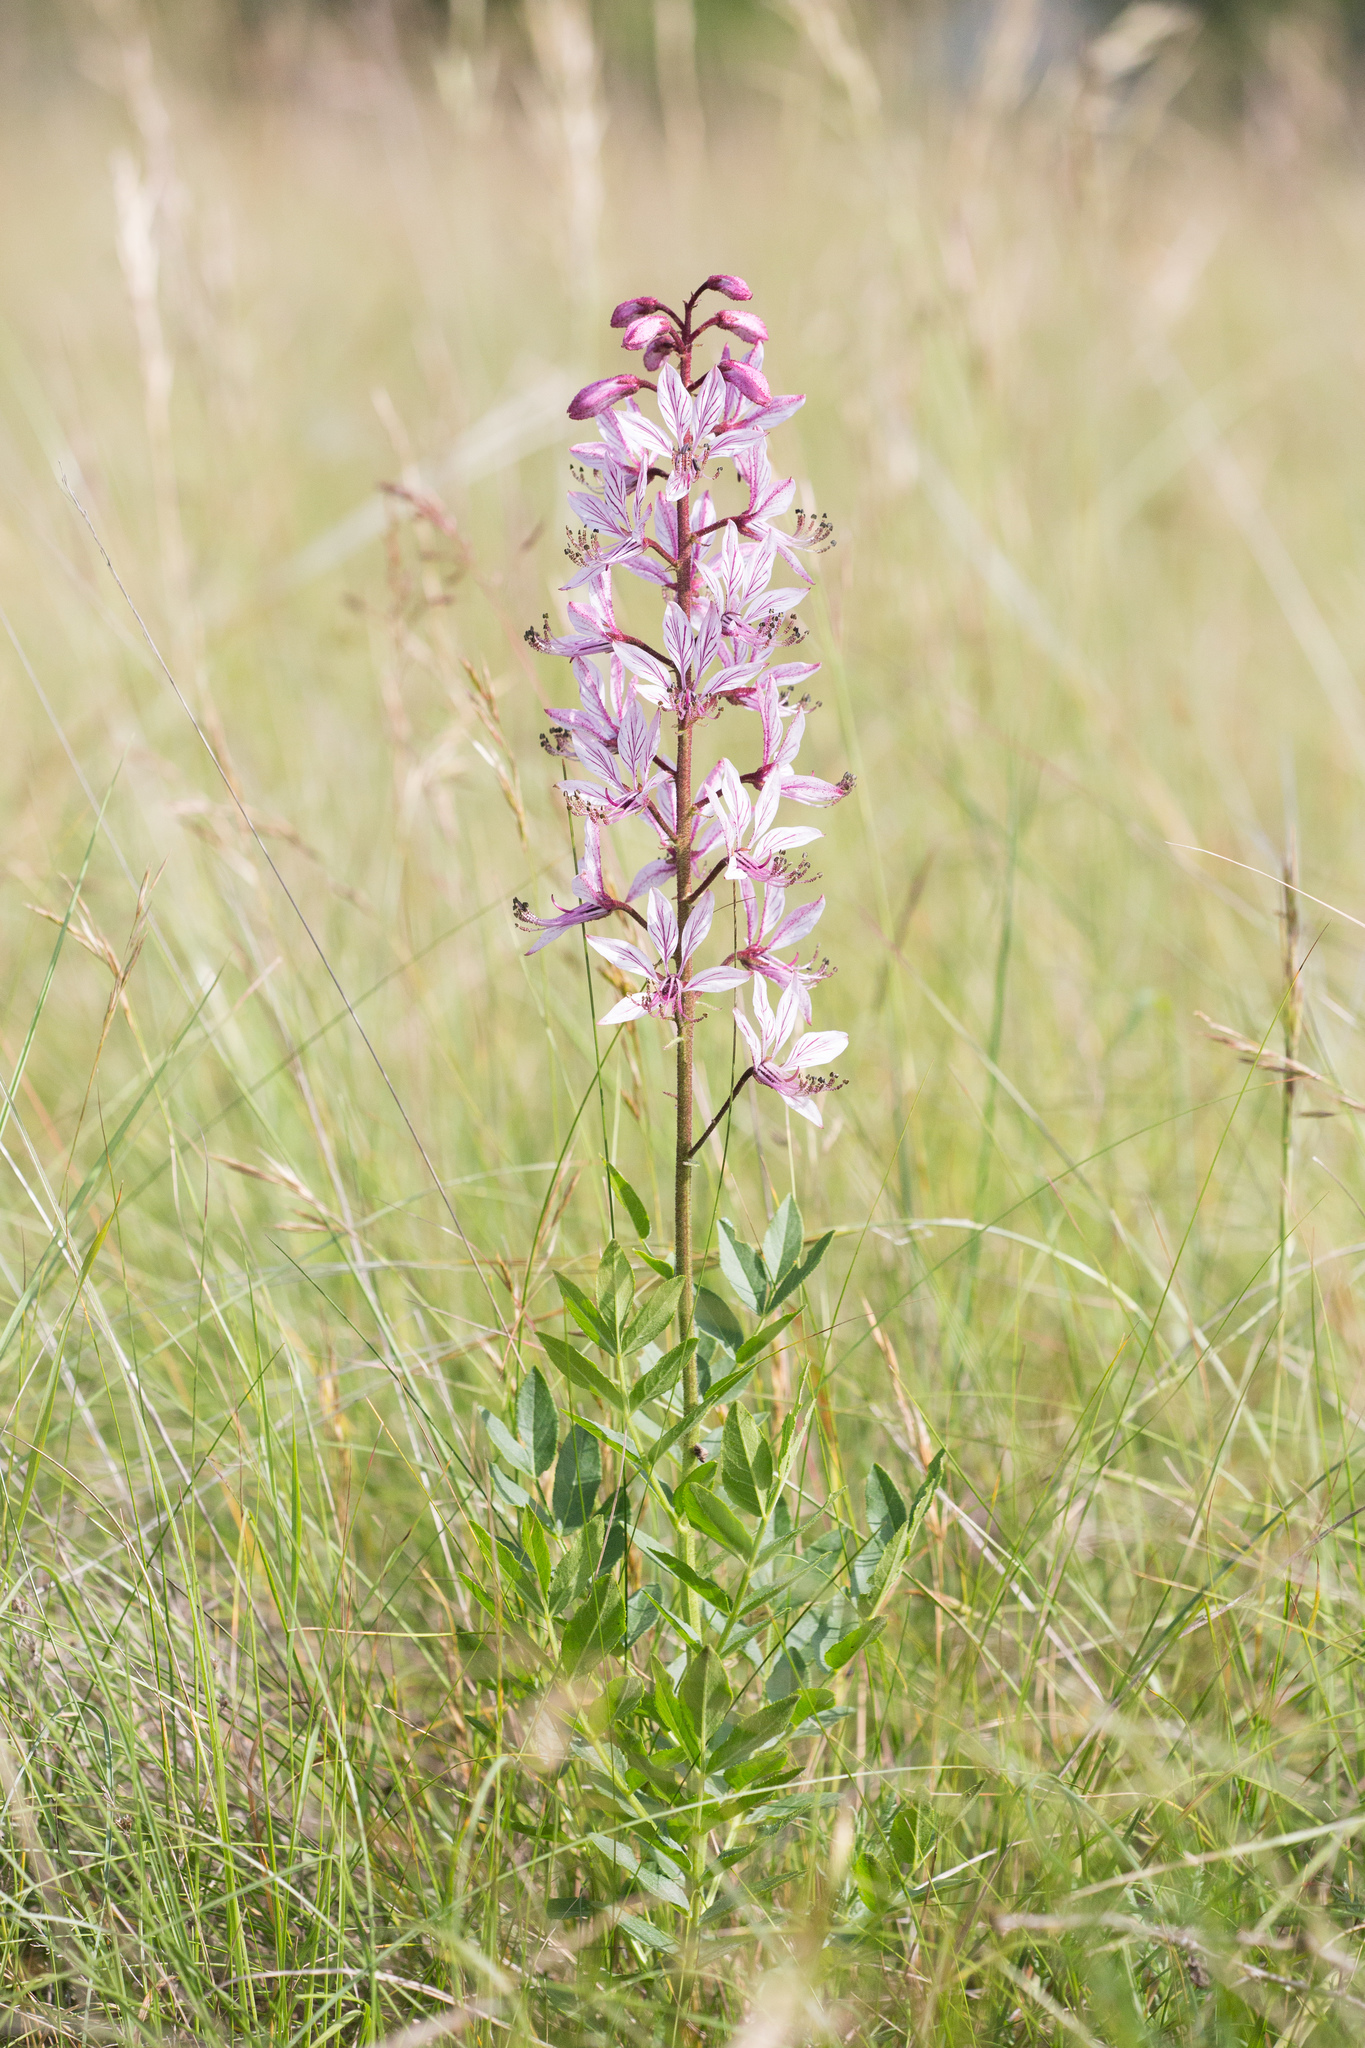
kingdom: Plantae
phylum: Tracheophyta
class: Magnoliopsida
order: Sapindales
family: Rutaceae
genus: Dictamnus
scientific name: Dictamnus albus
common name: Gasplant
